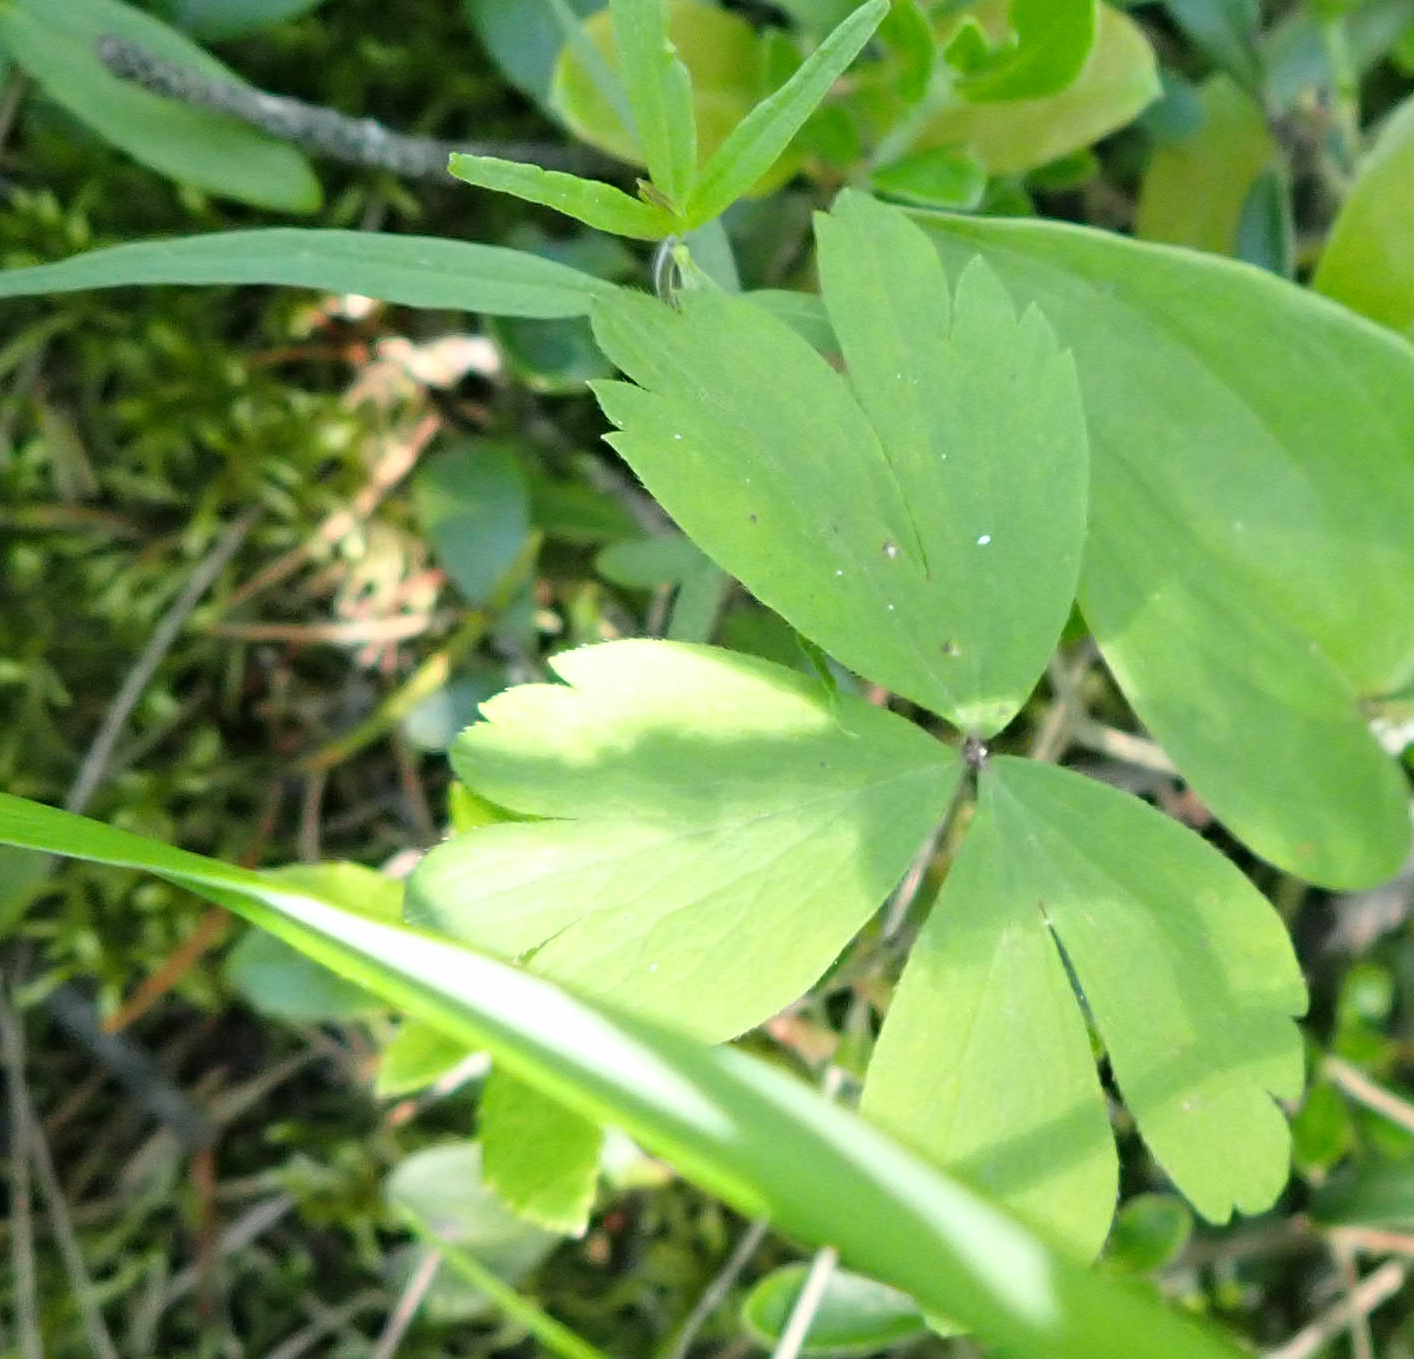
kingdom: Plantae
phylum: Tracheophyta
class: Magnoliopsida
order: Ranunculales
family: Ranunculaceae
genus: Anemone
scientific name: Anemone quinquefolia
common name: Wood anemone
